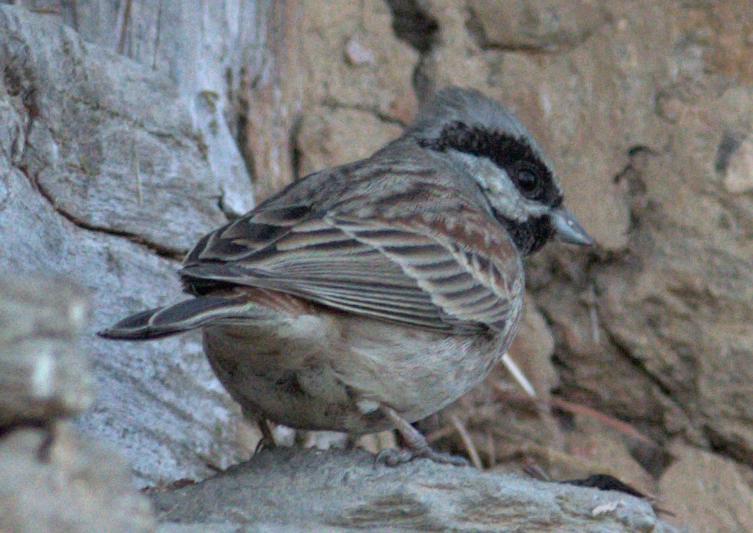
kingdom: Animalia
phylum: Chordata
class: Aves
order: Passeriformes
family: Emberizidae
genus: Emberiza
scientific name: Emberiza stewarti
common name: White-capped bunting
